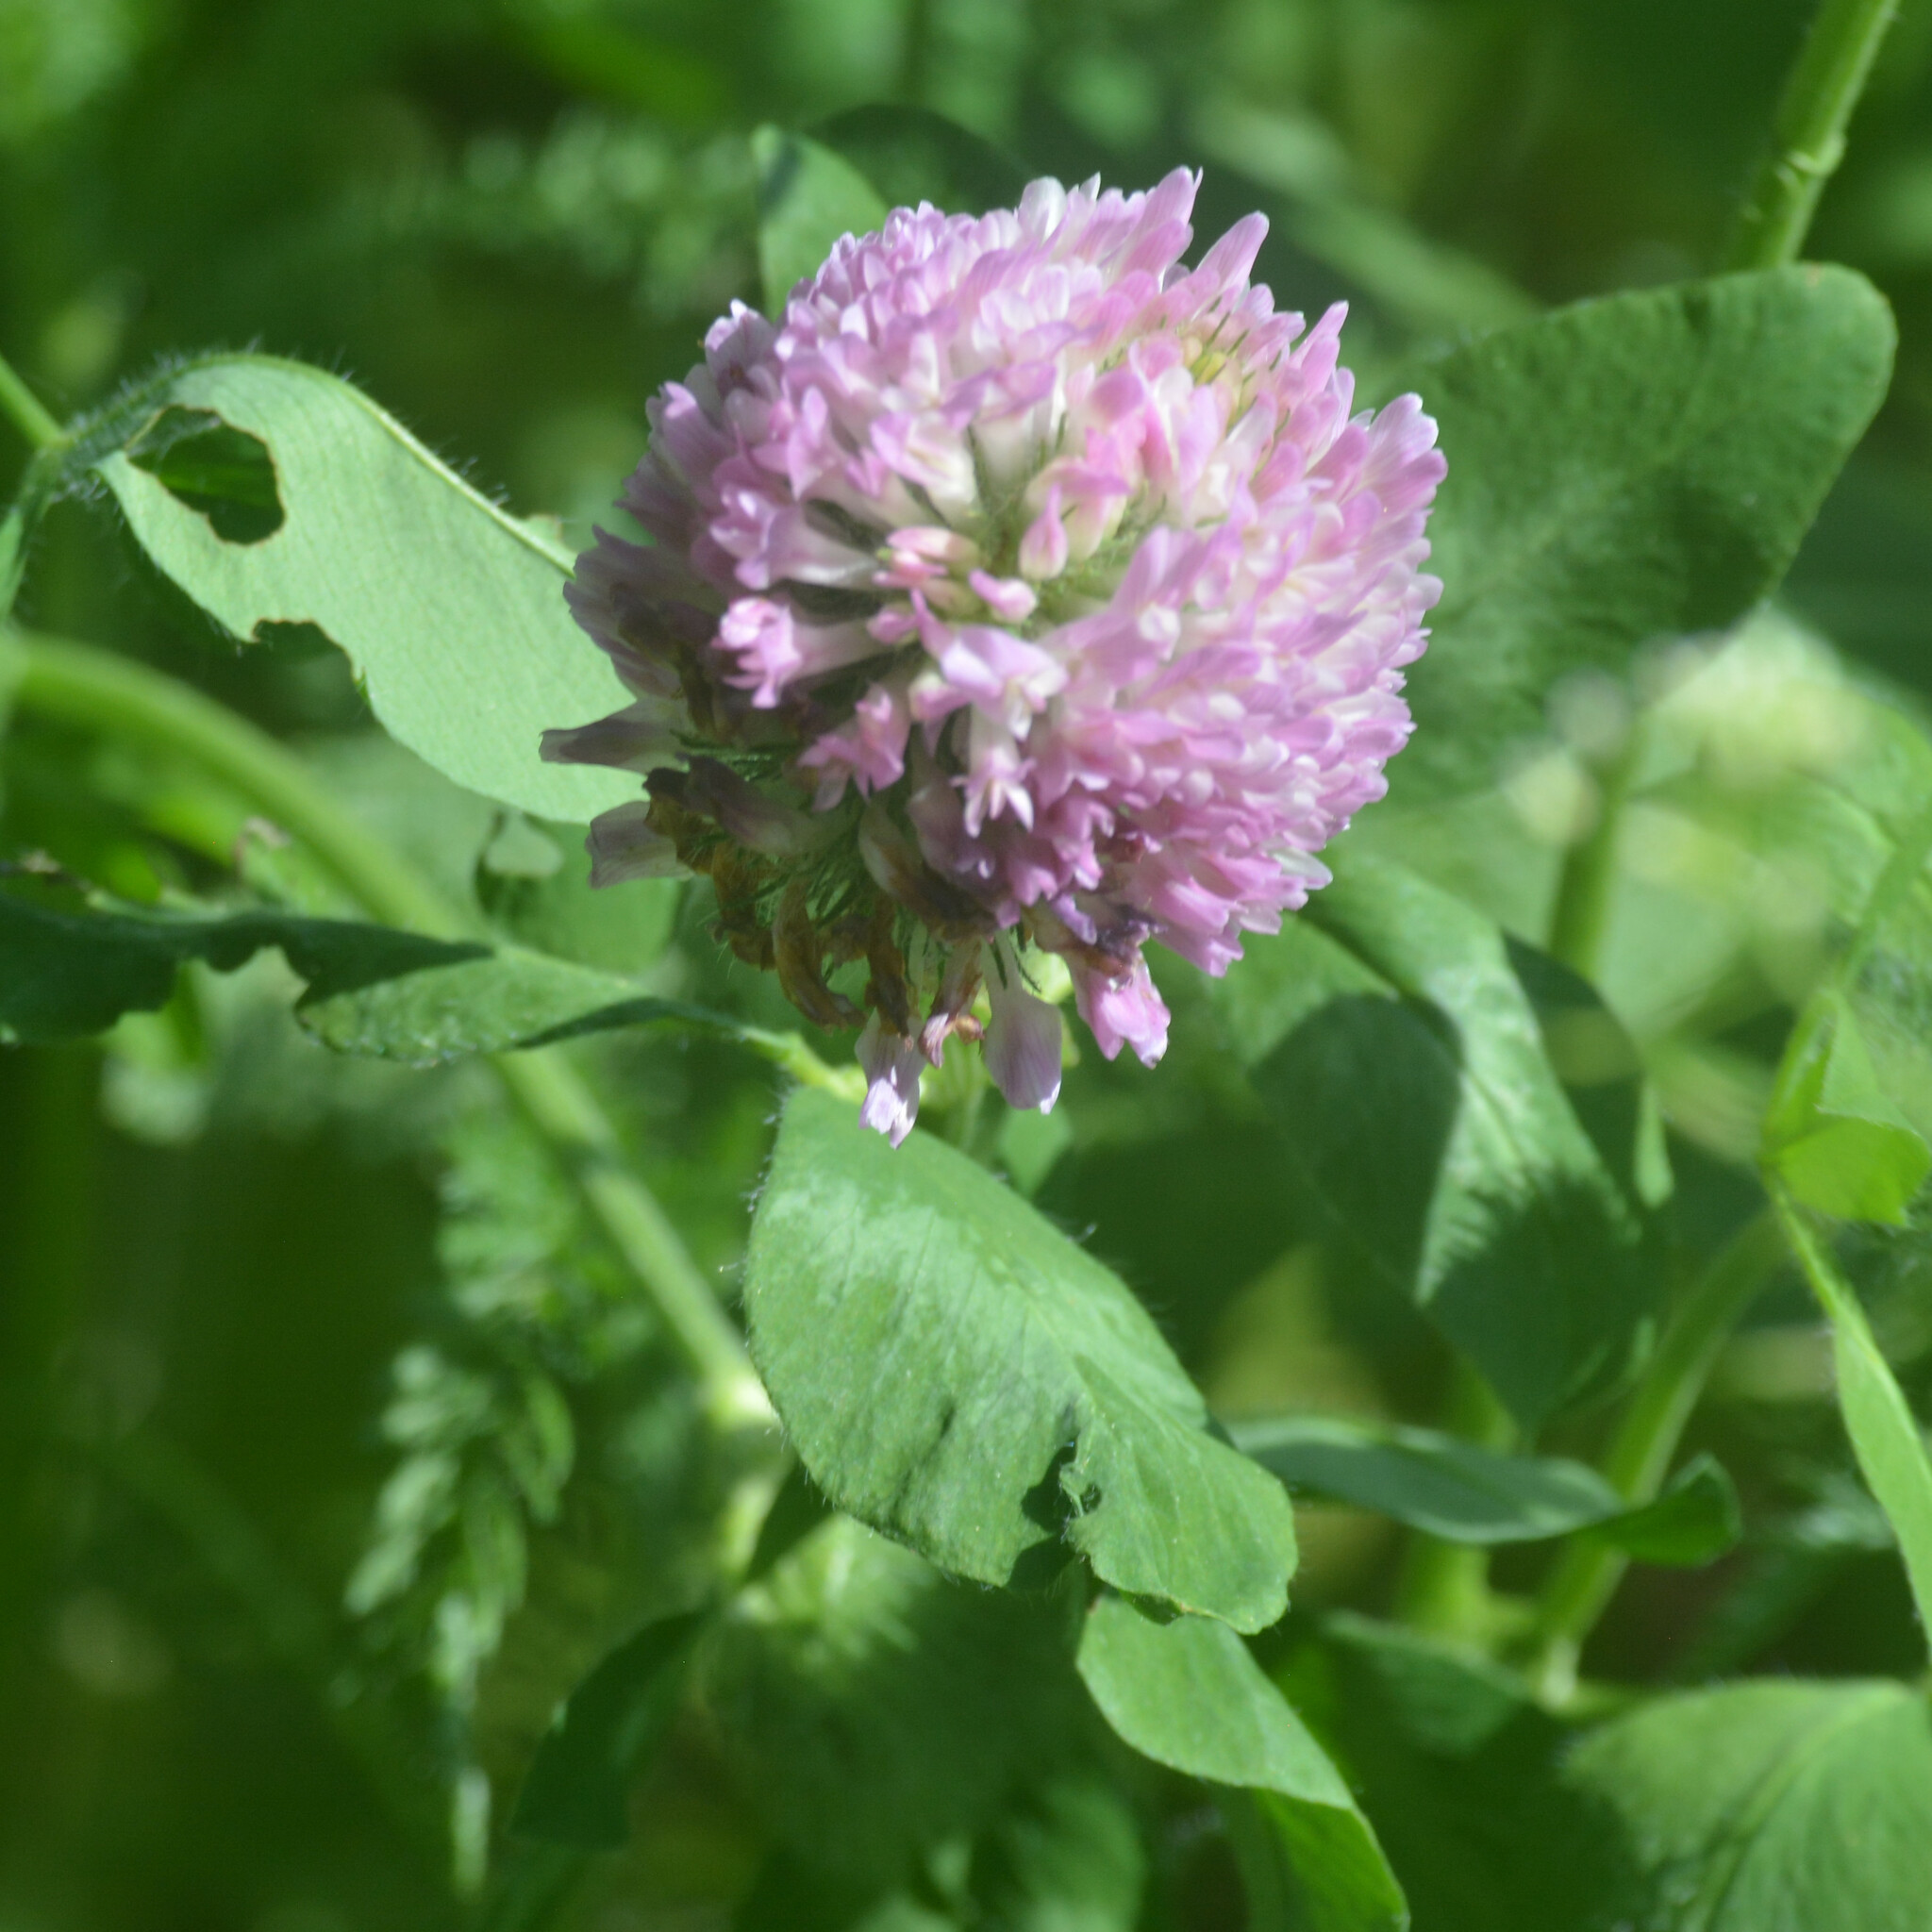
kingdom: Plantae
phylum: Tracheophyta
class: Magnoliopsida
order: Fabales
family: Fabaceae
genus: Trifolium
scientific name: Trifolium pratense
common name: Red clover
